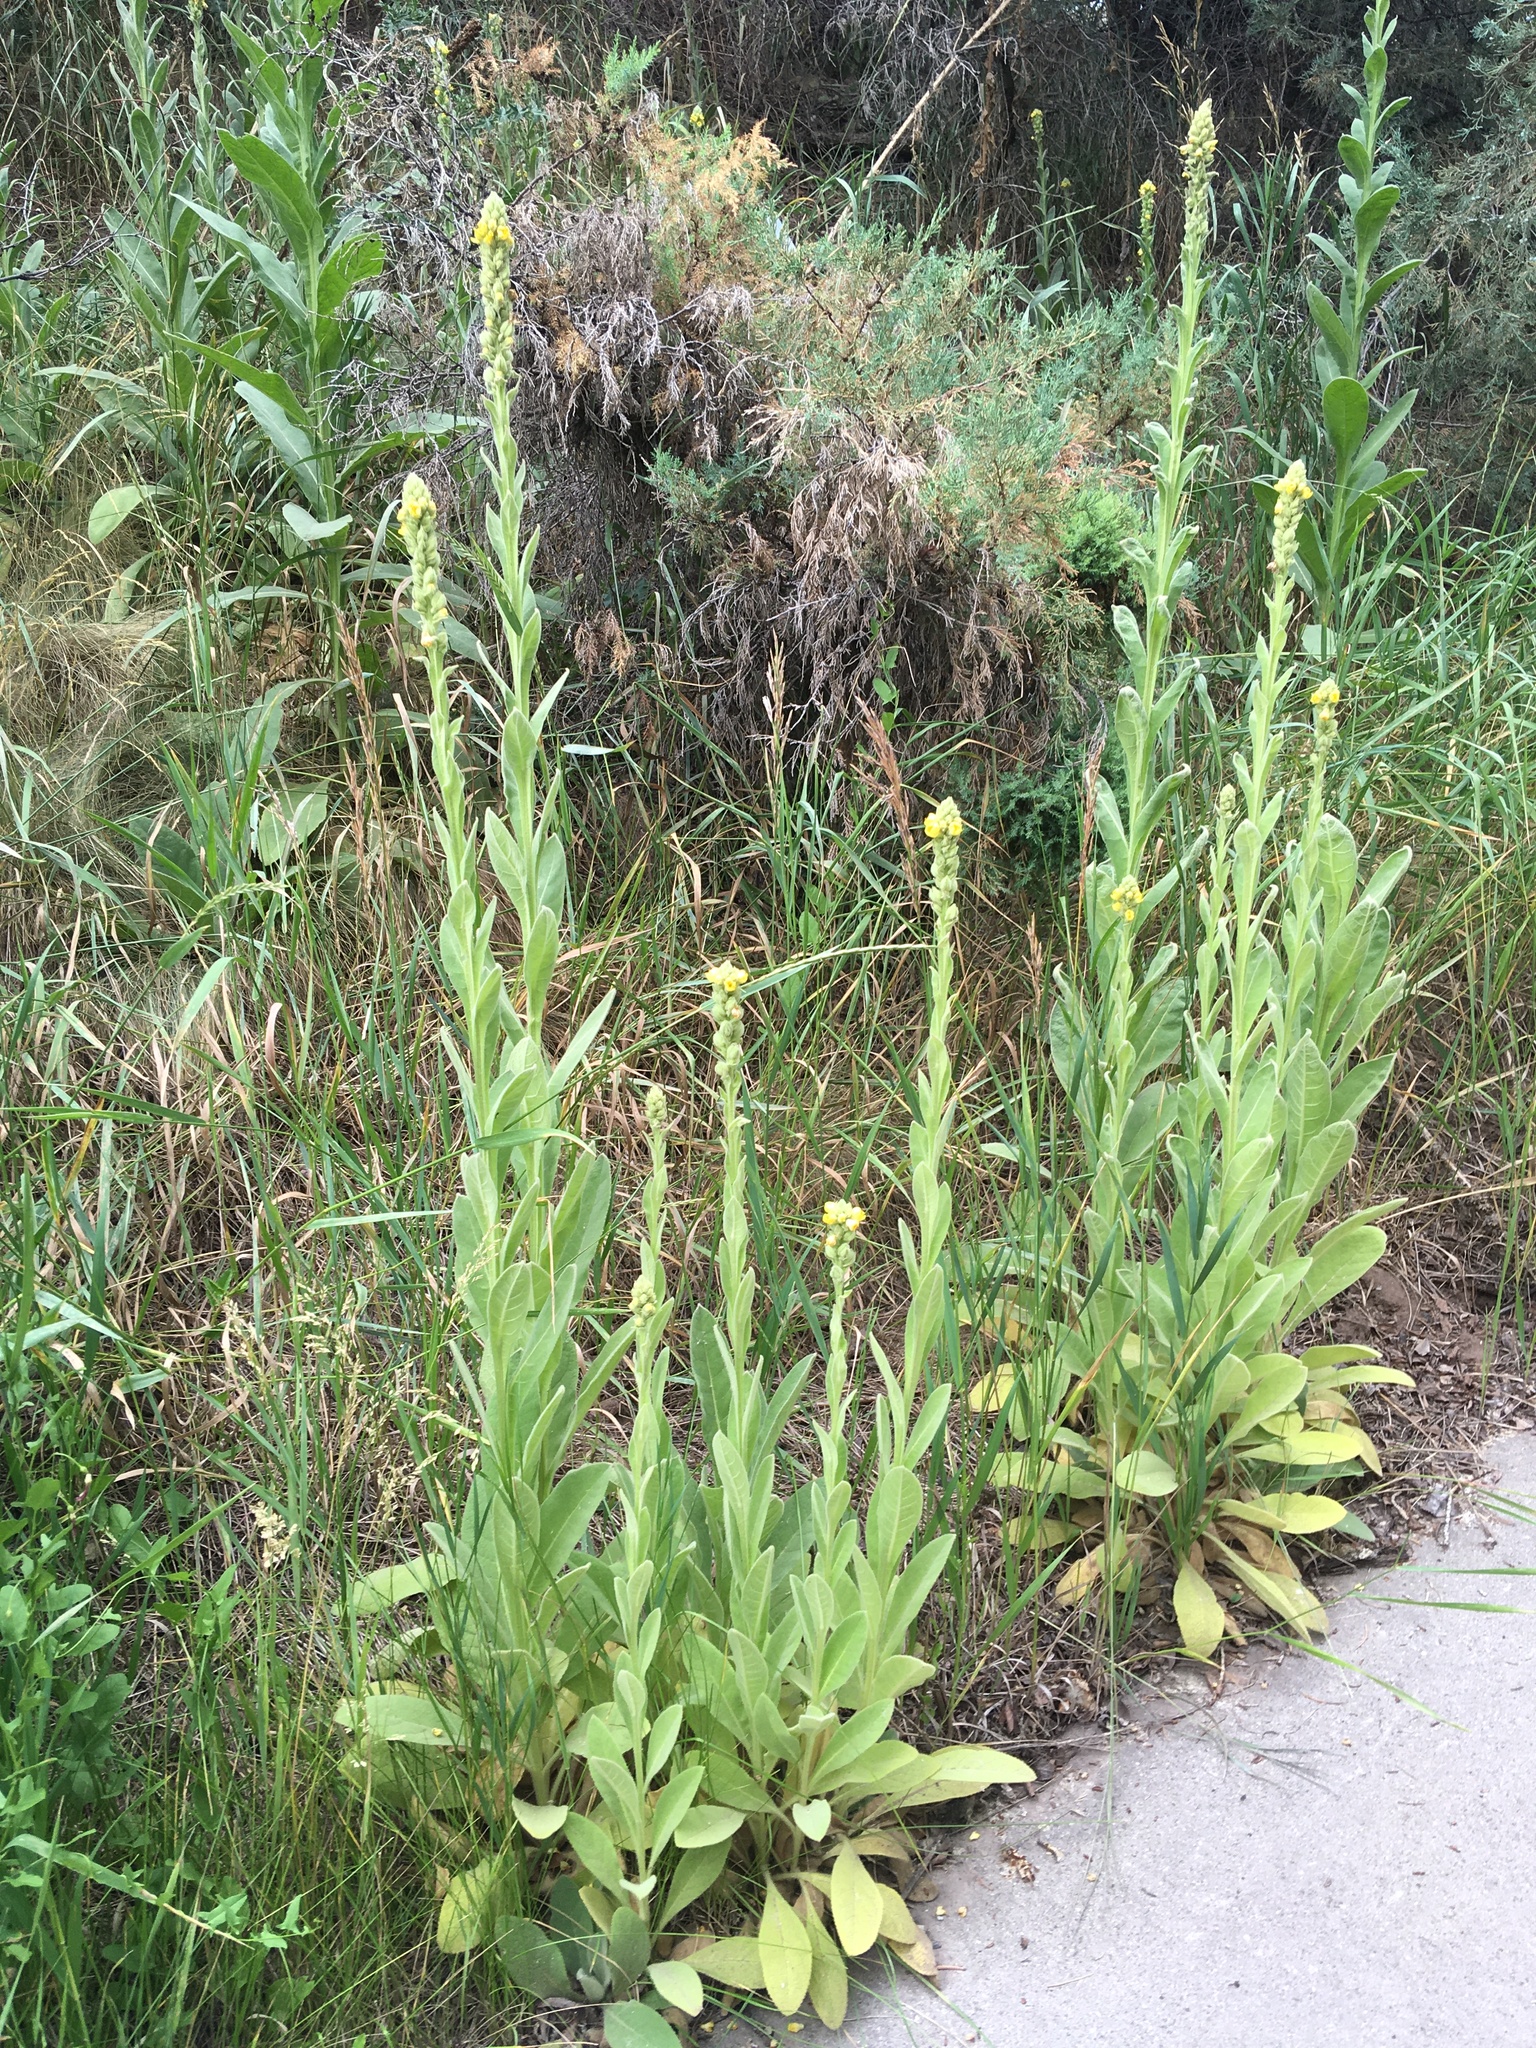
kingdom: Plantae
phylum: Tracheophyta
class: Magnoliopsida
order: Lamiales
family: Scrophulariaceae
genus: Verbascum
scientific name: Verbascum thapsus
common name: Common mullein
